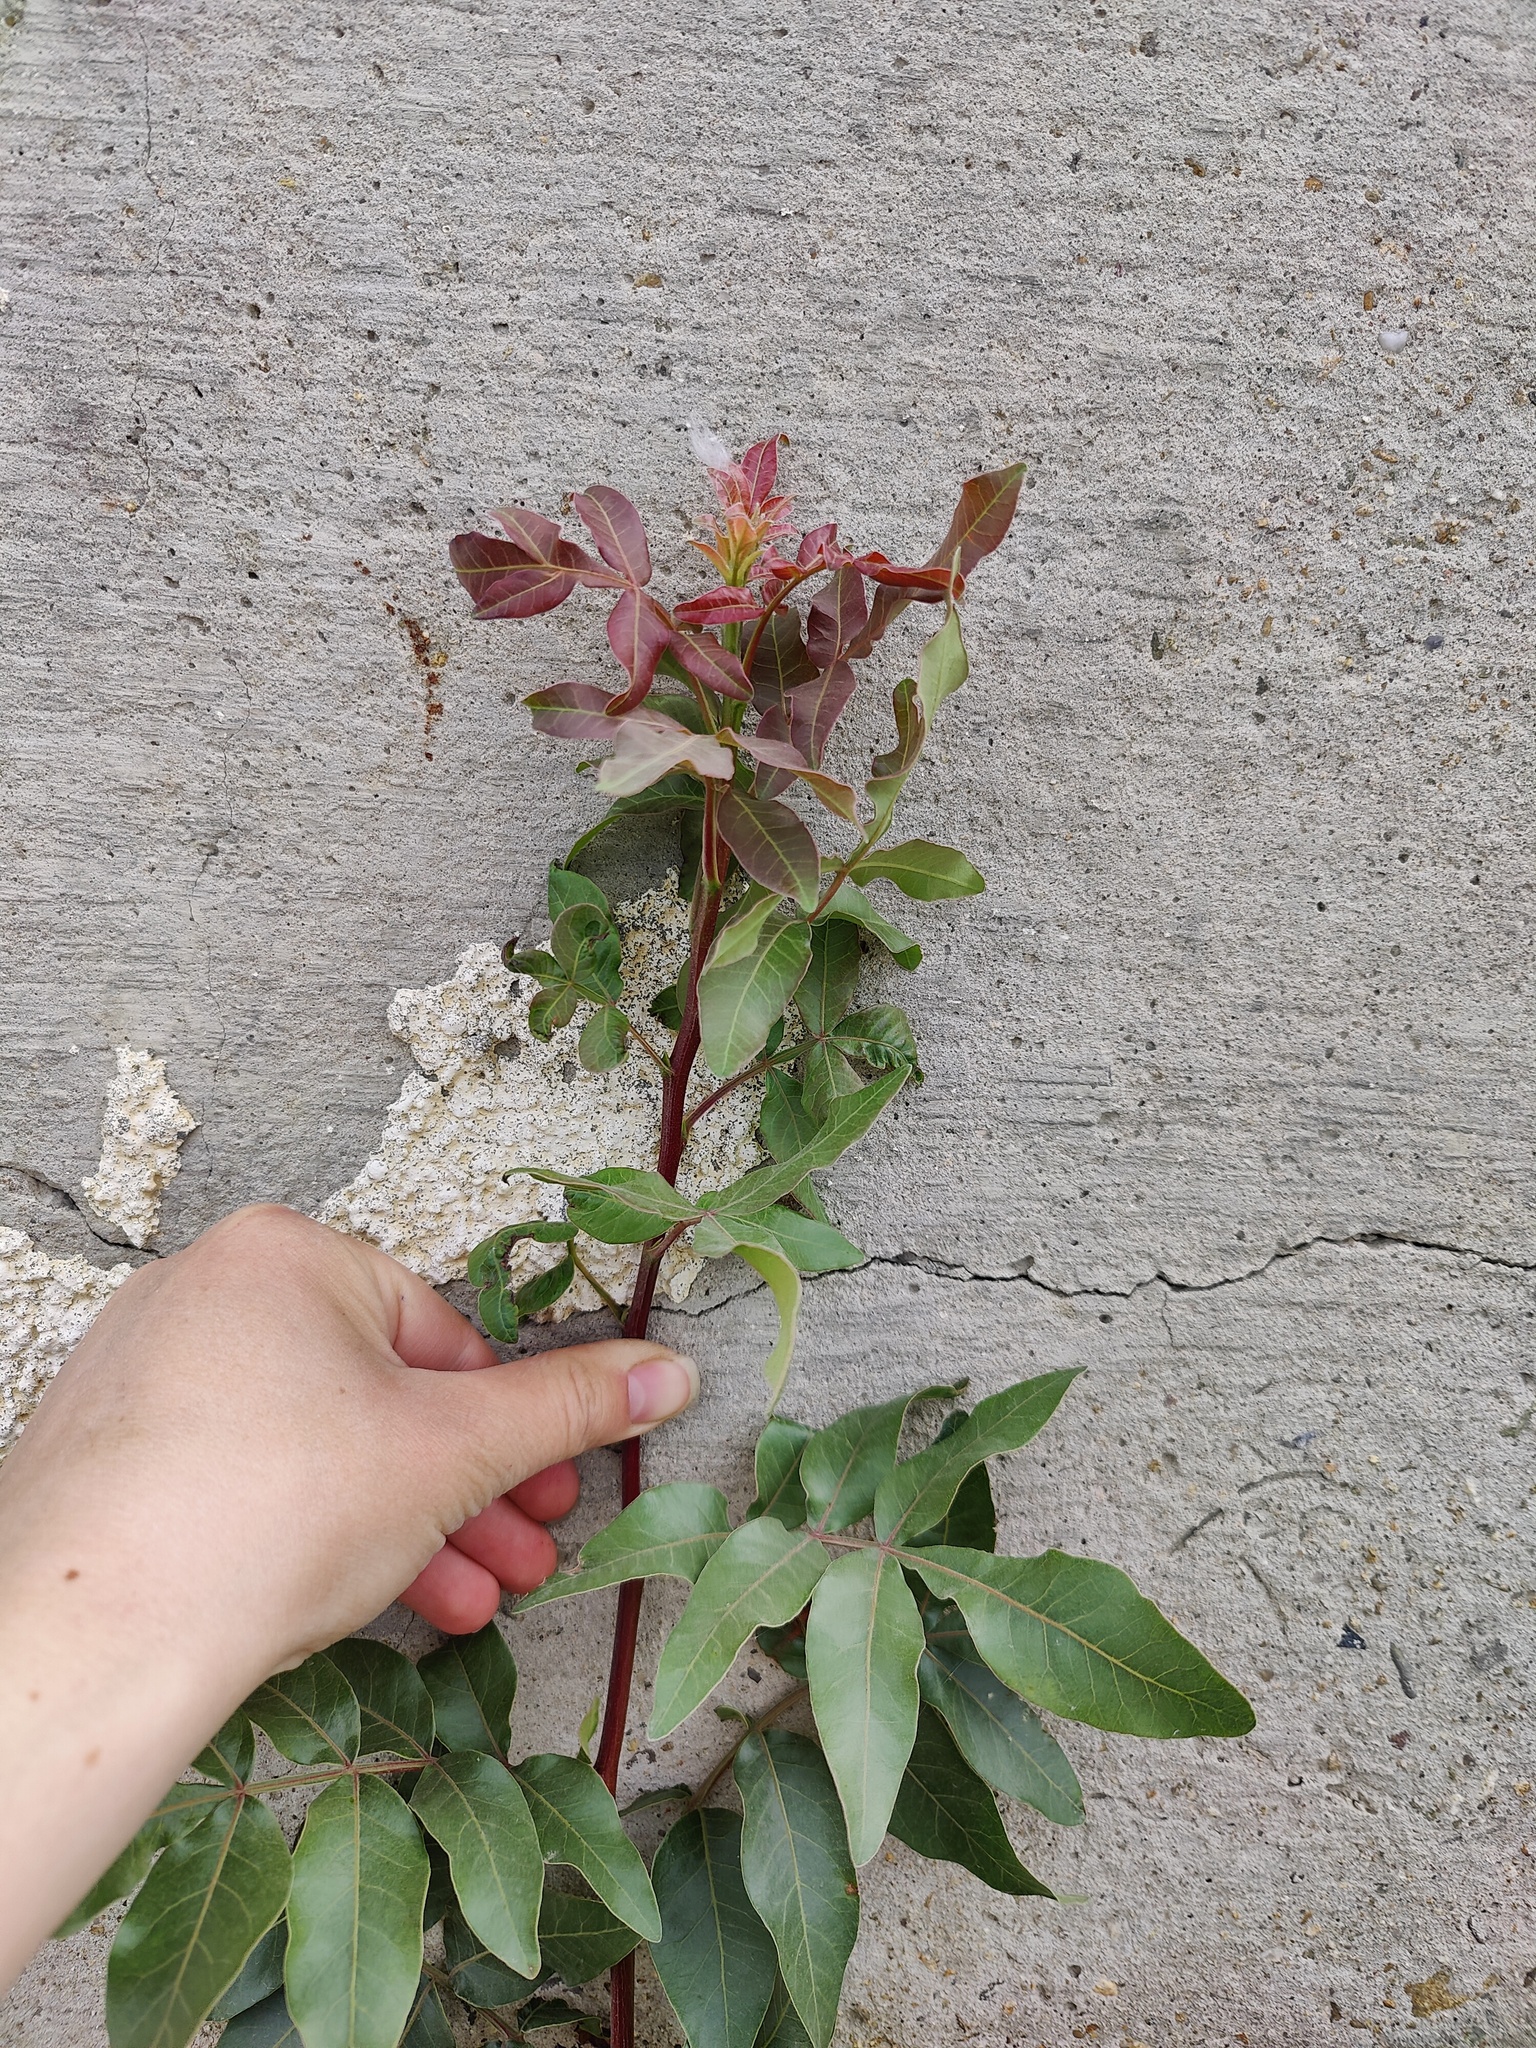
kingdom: Plantae
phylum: Tracheophyta
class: Magnoliopsida
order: Sapindales
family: Anacardiaceae
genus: Pistacia
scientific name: Pistacia atlantica
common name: Mt. atlas mastic tree
